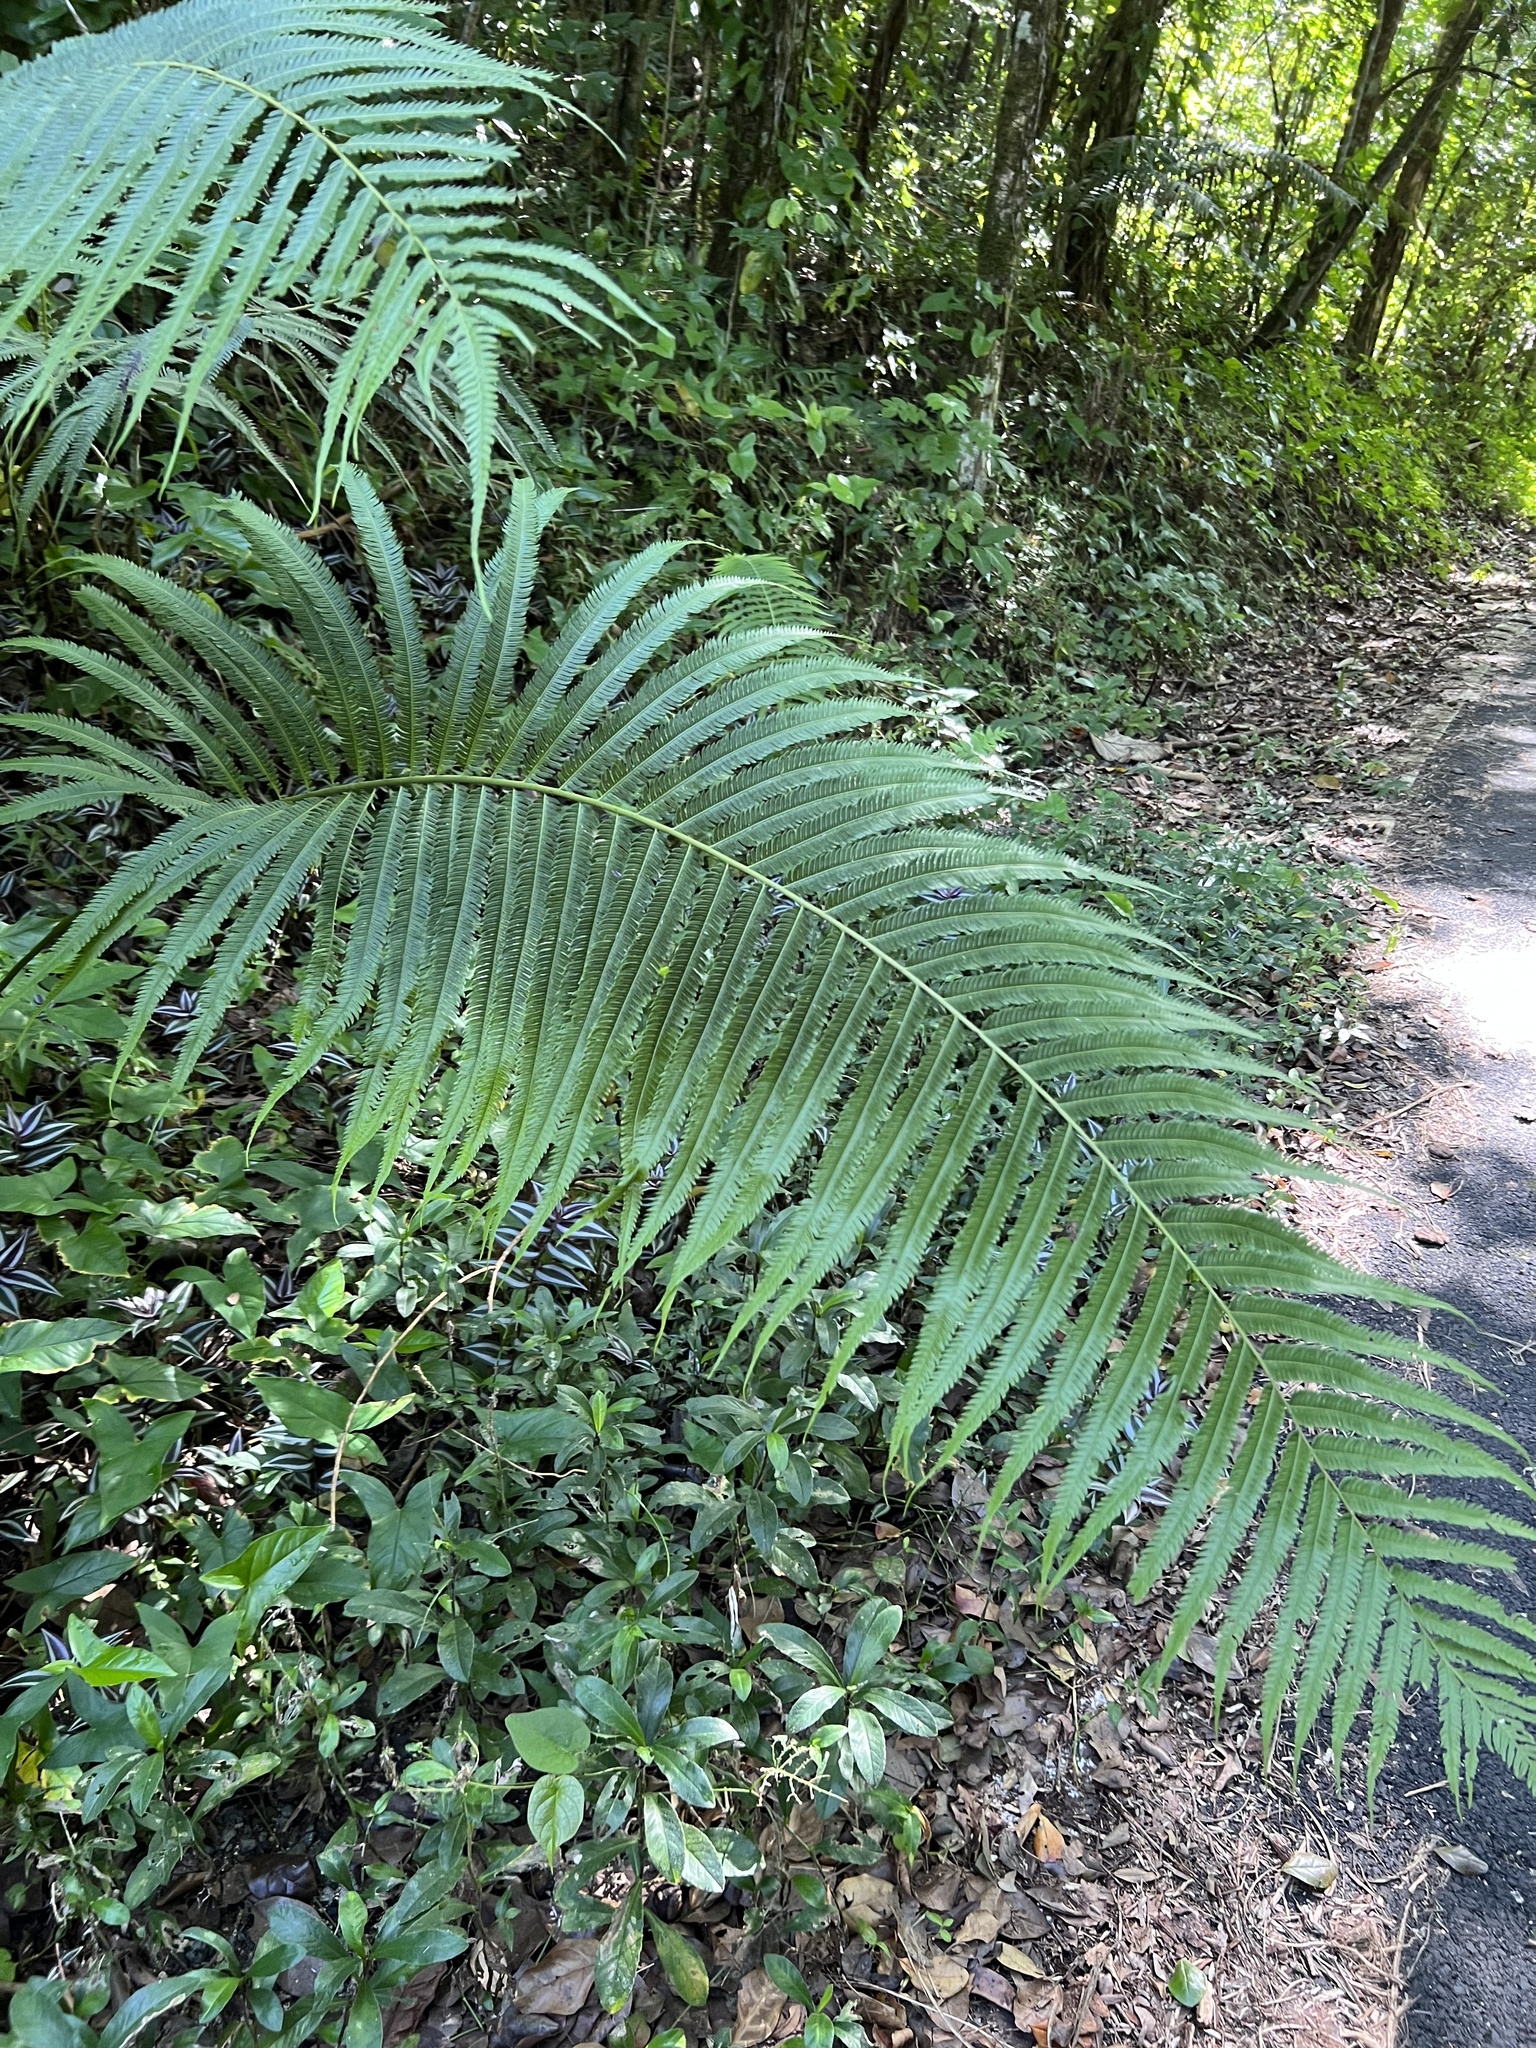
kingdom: Plantae
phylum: Tracheophyta
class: Polypodiopsida
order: Polypodiales
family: Thelypteridaceae
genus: Pelazoneuron
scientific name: Pelazoneuron abruptum
